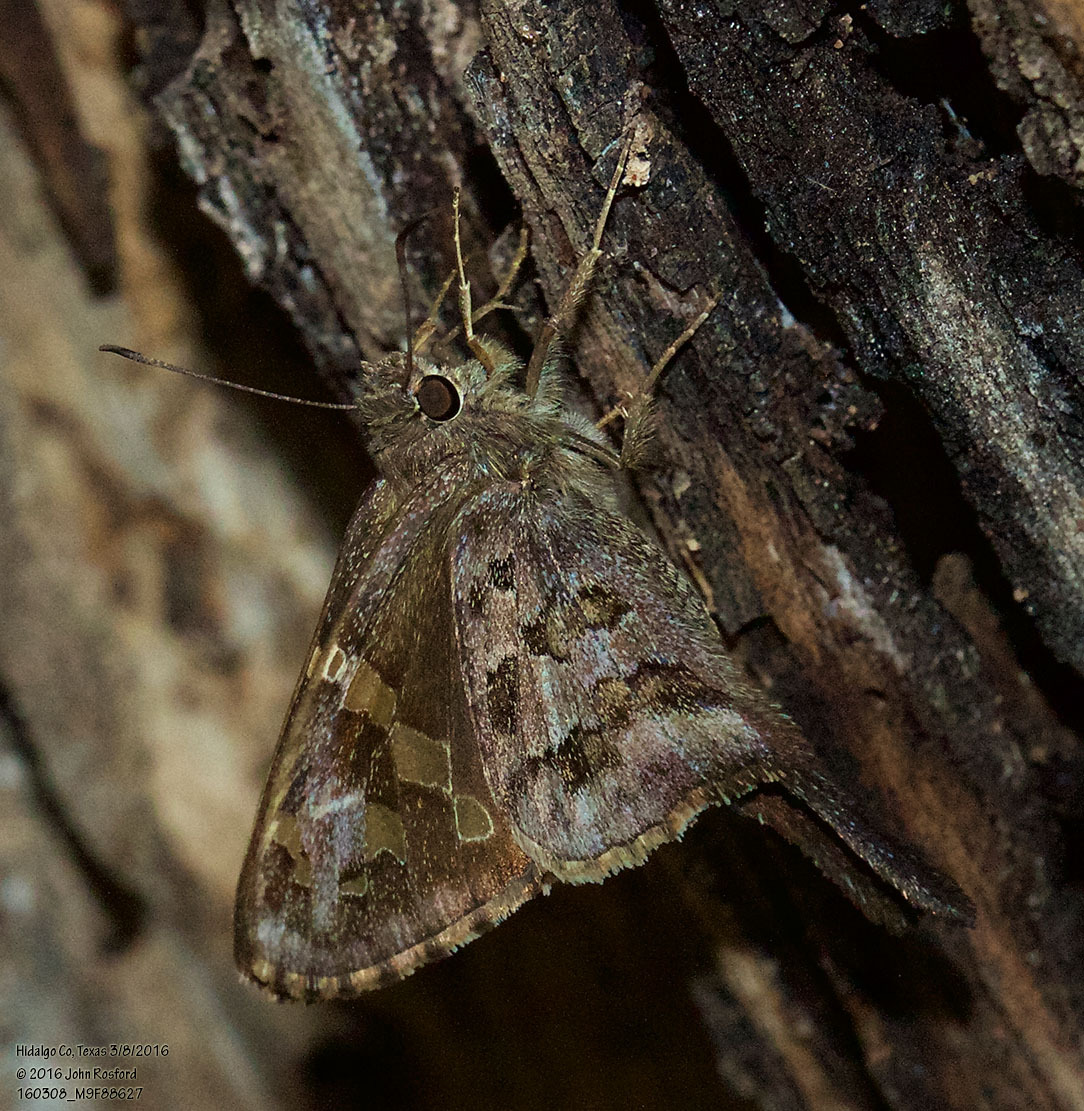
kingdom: Animalia
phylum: Arthropoda
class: Insecta
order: Lepidoptera
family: Hesperiidae
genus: Thorybes
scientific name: Thorybes
